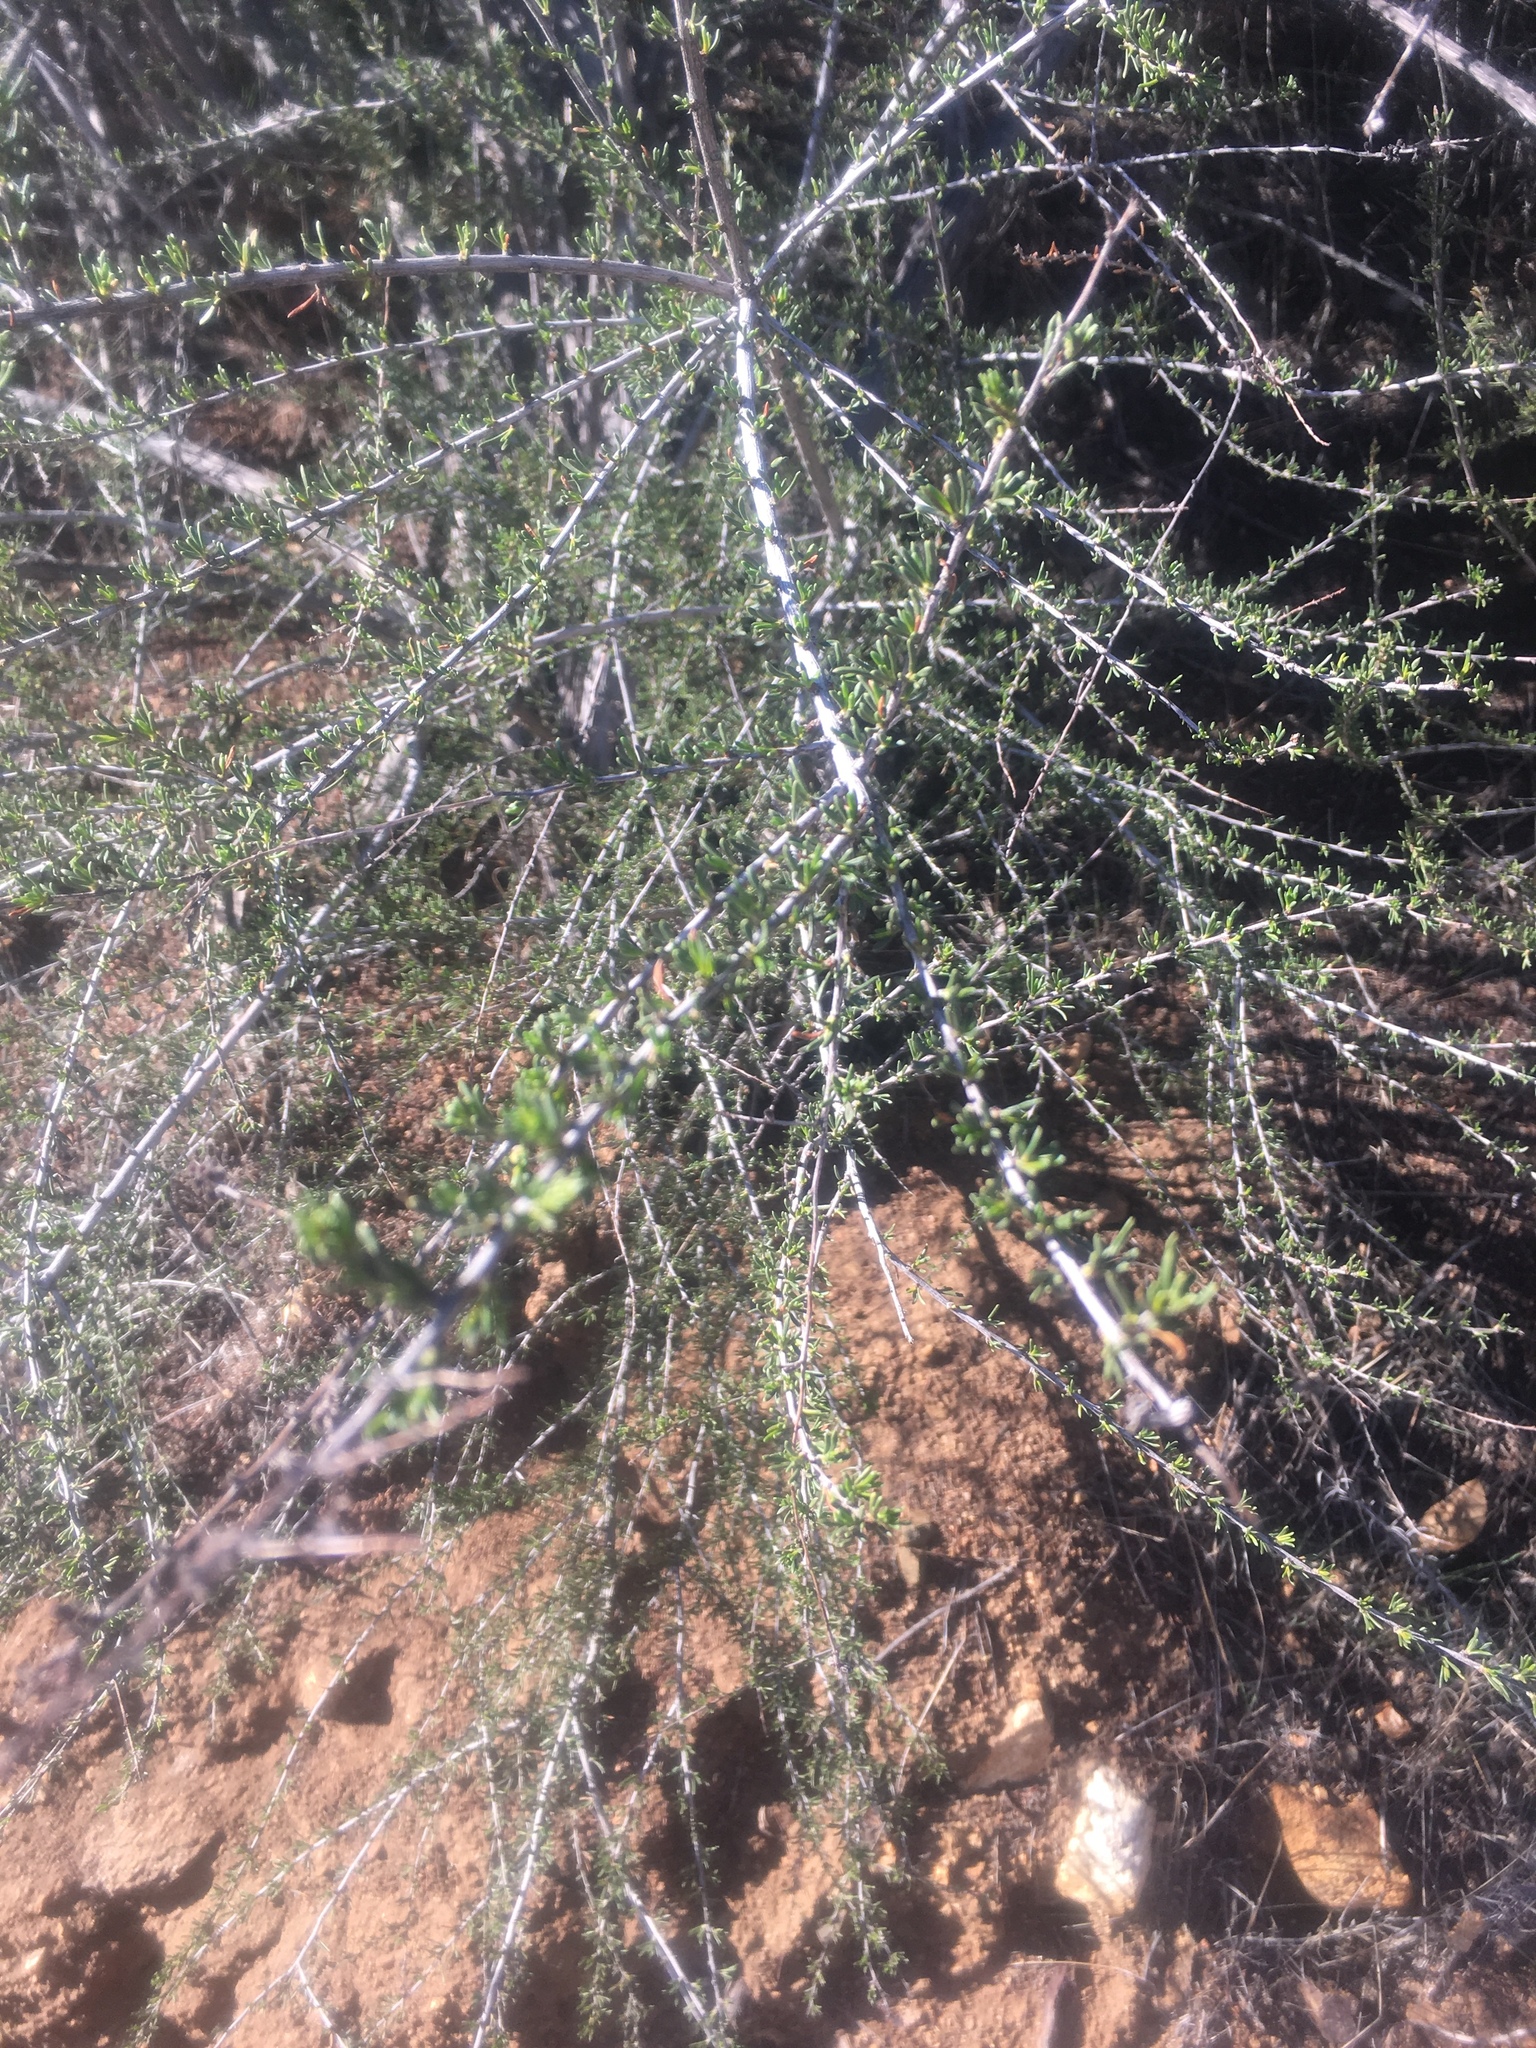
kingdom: Plantae
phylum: Tracheophyta
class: Magnoliopsida
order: Rosales
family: Rosaceae
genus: Adenostoma
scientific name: Adenostoma fasciculatum
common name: Chamise
